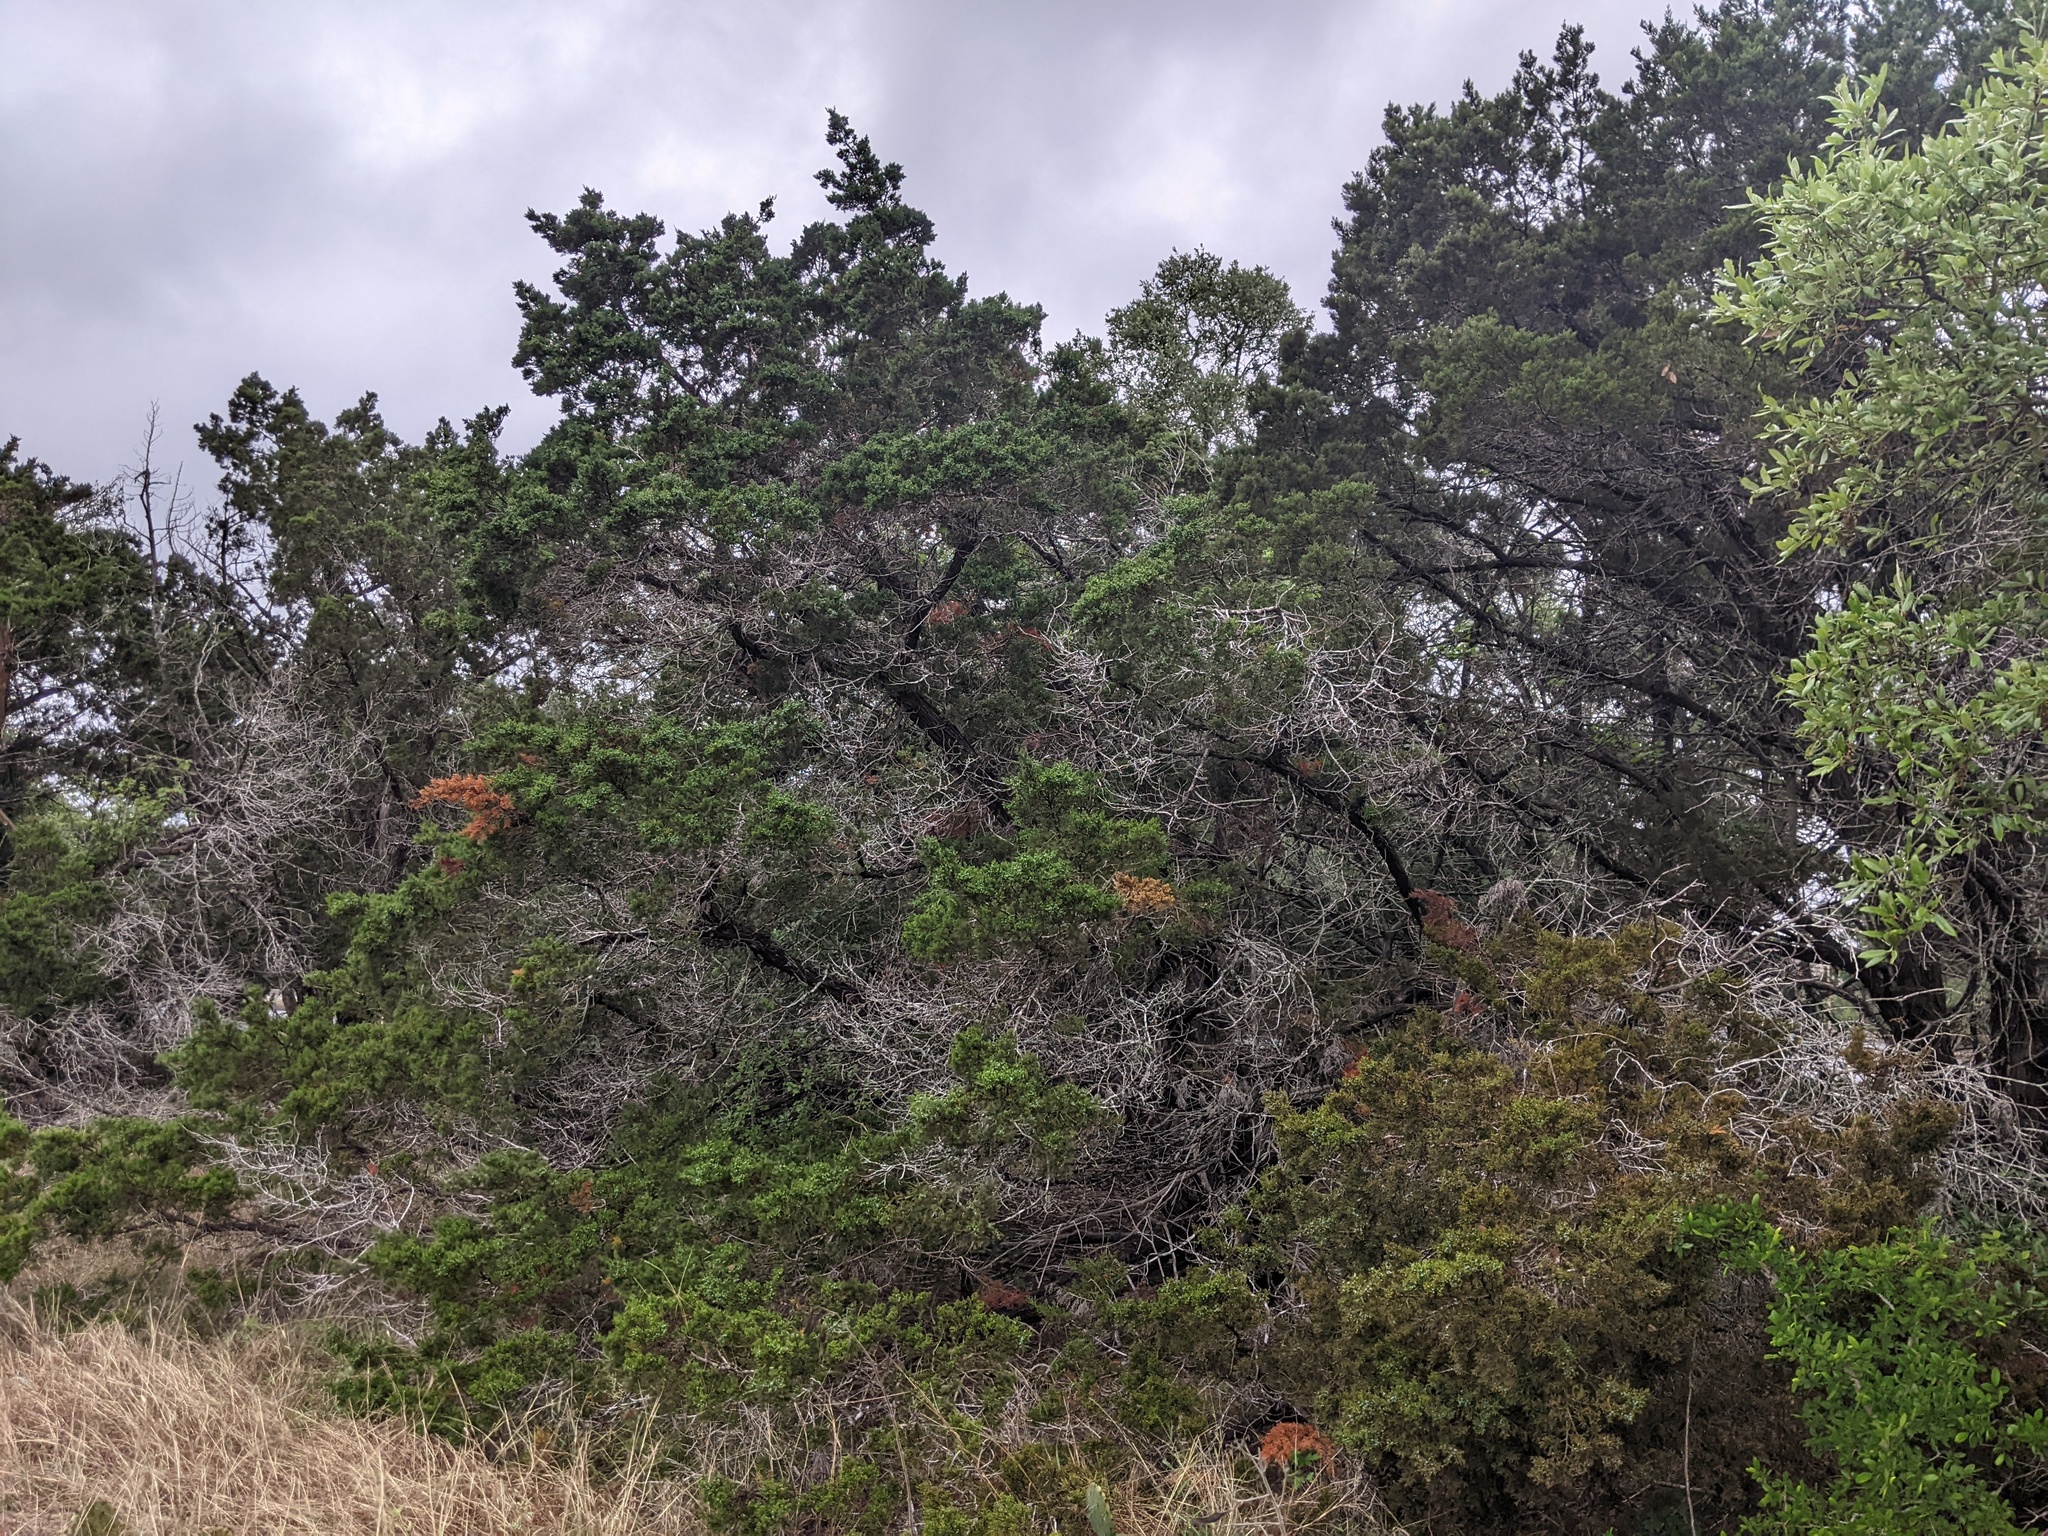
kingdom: Plantae
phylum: Tracheophyta
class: Pinopsida
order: Pinales
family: Cupressaceae
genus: Juniperus
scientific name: Juniperus ashei
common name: Mexican juniper
